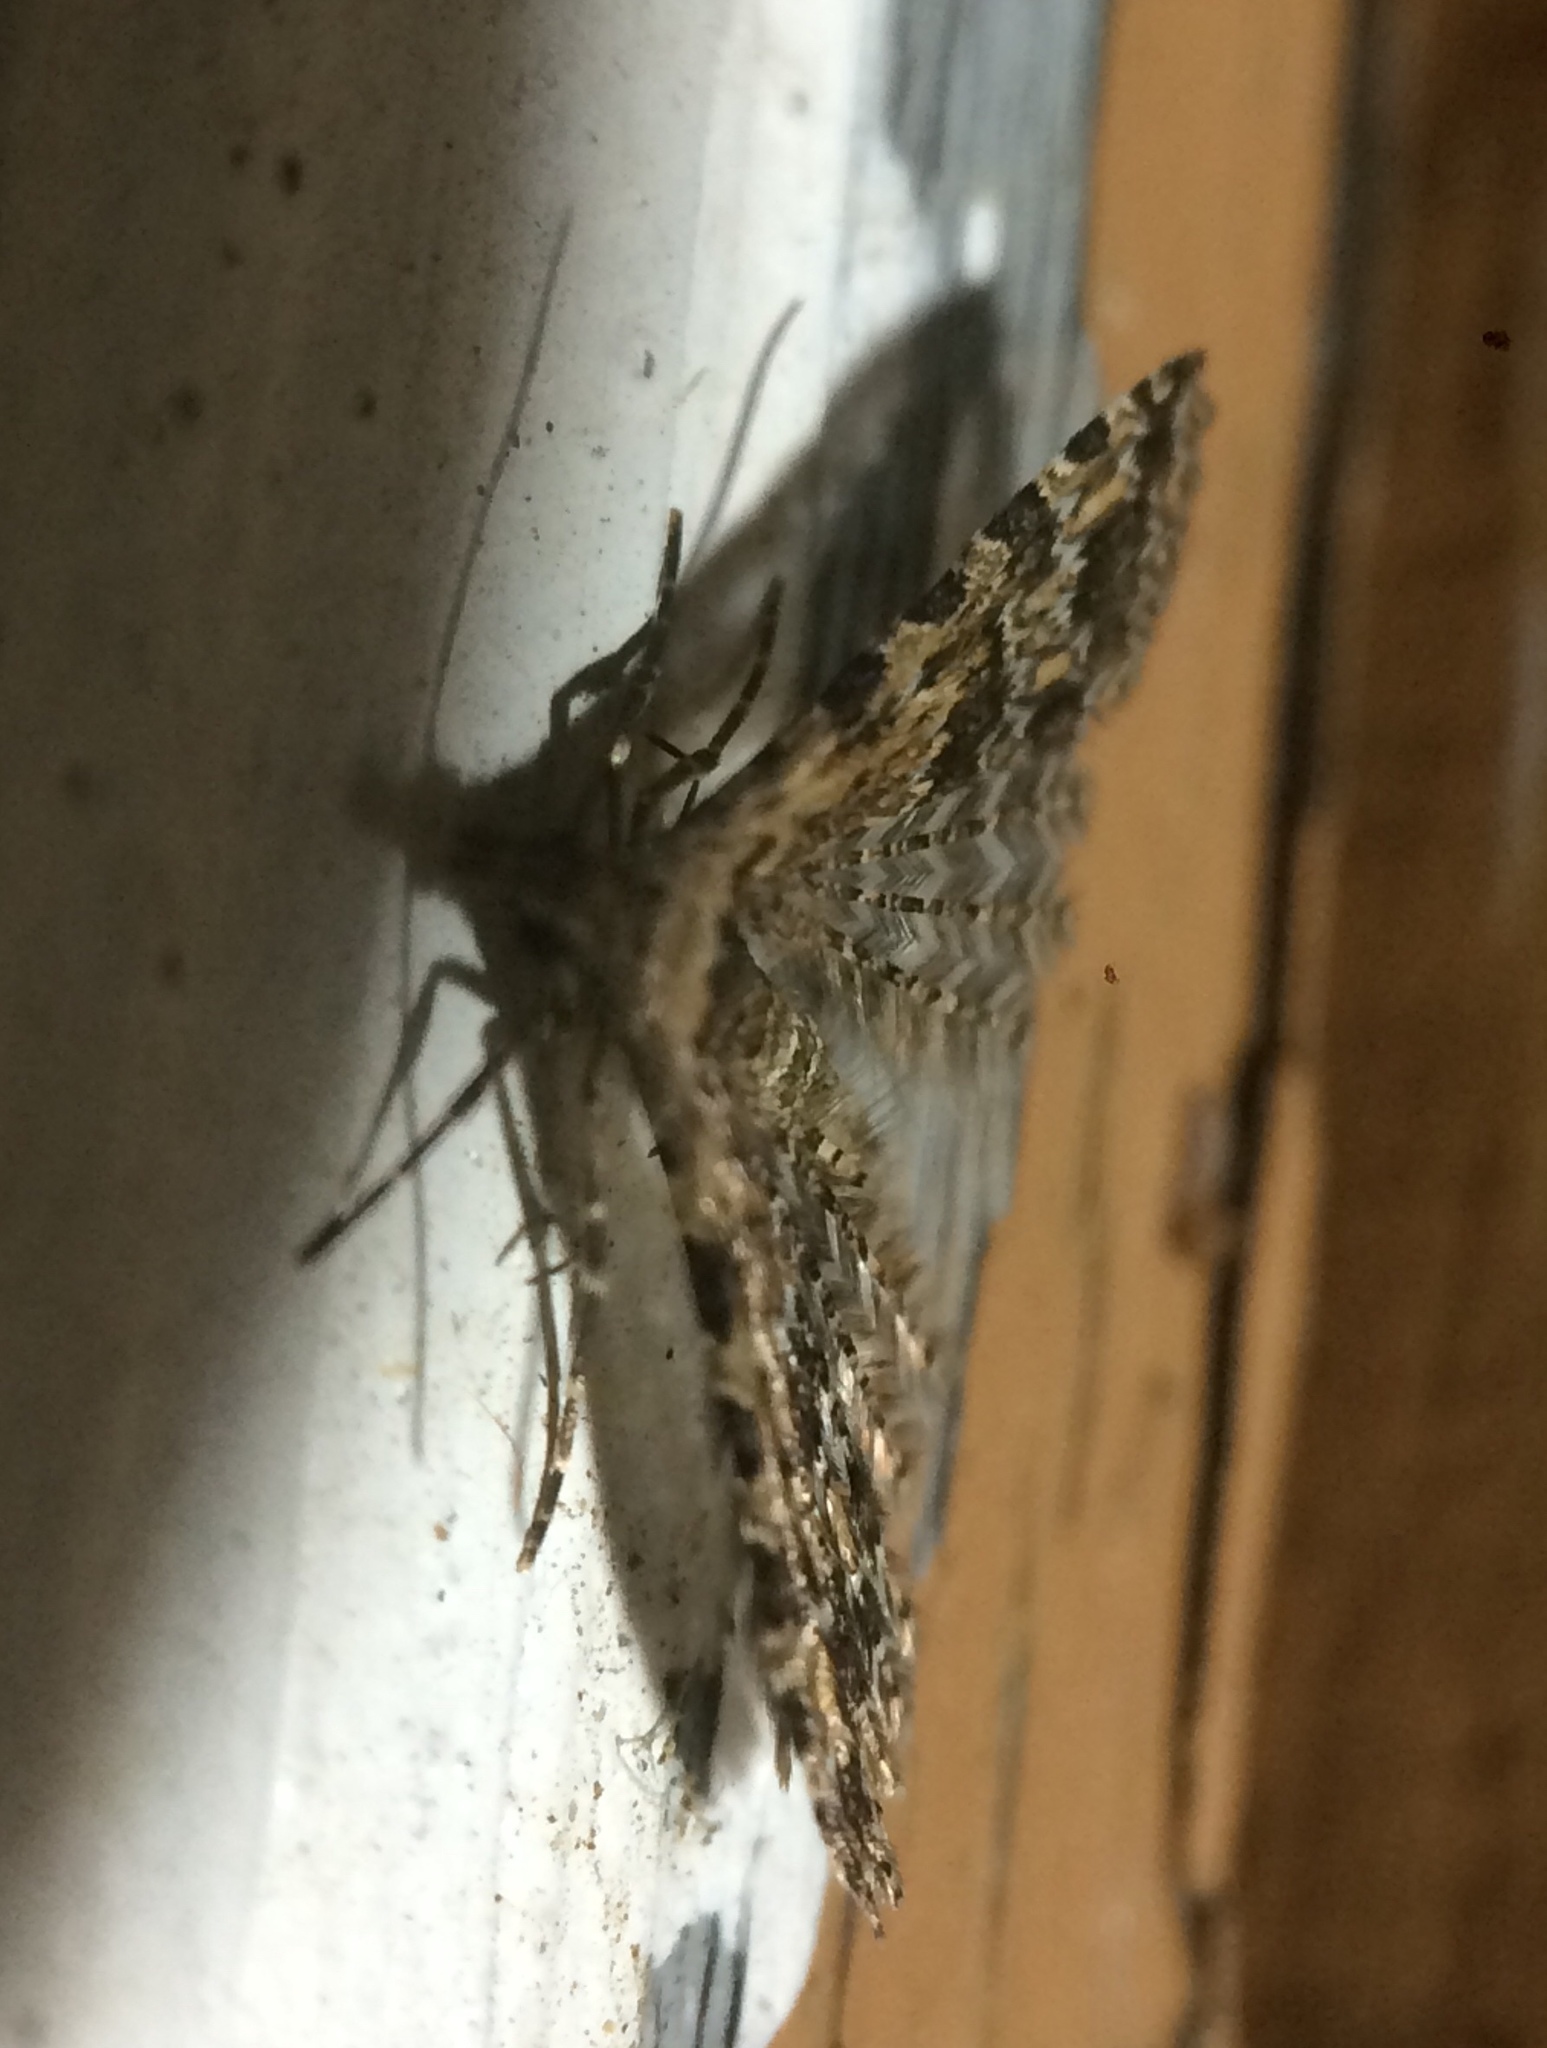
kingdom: Animalia
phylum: Arthropoda
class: Insecta
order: Lepidoptera
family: Alucitidae
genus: Alucita
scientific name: Alucita montana
